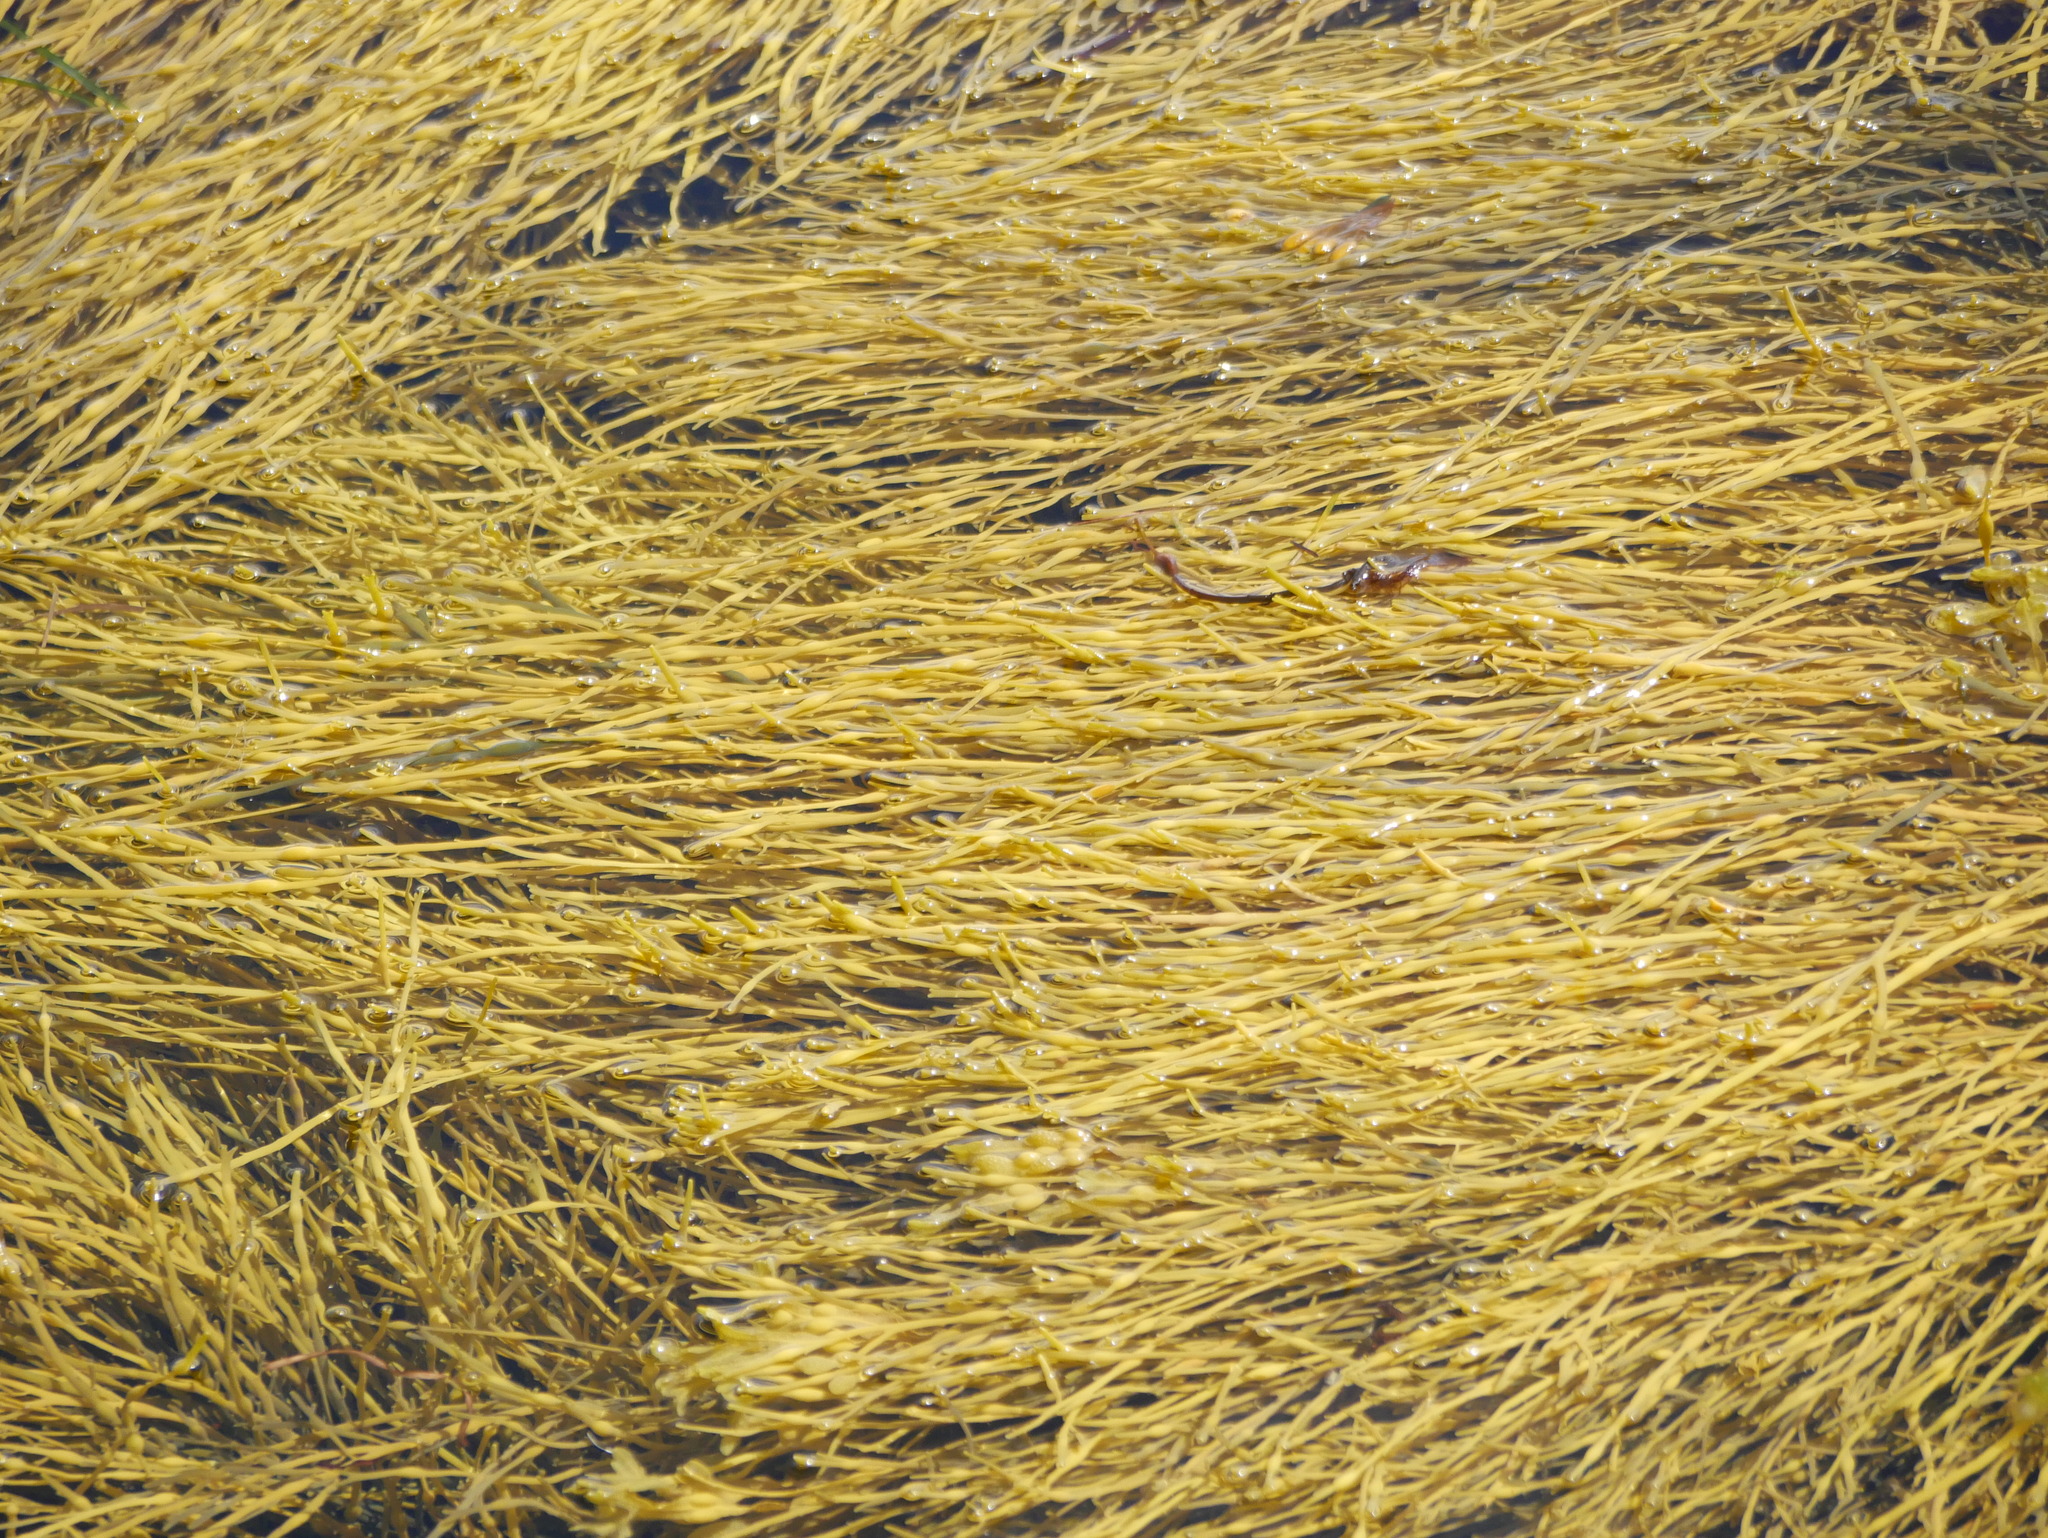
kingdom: Chromista
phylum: Ochrophyta
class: Phaeophyceae
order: Fucales
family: Fucaceae
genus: Ascophyllum
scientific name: Ascophyllum nodosum
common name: Knotted wrack
